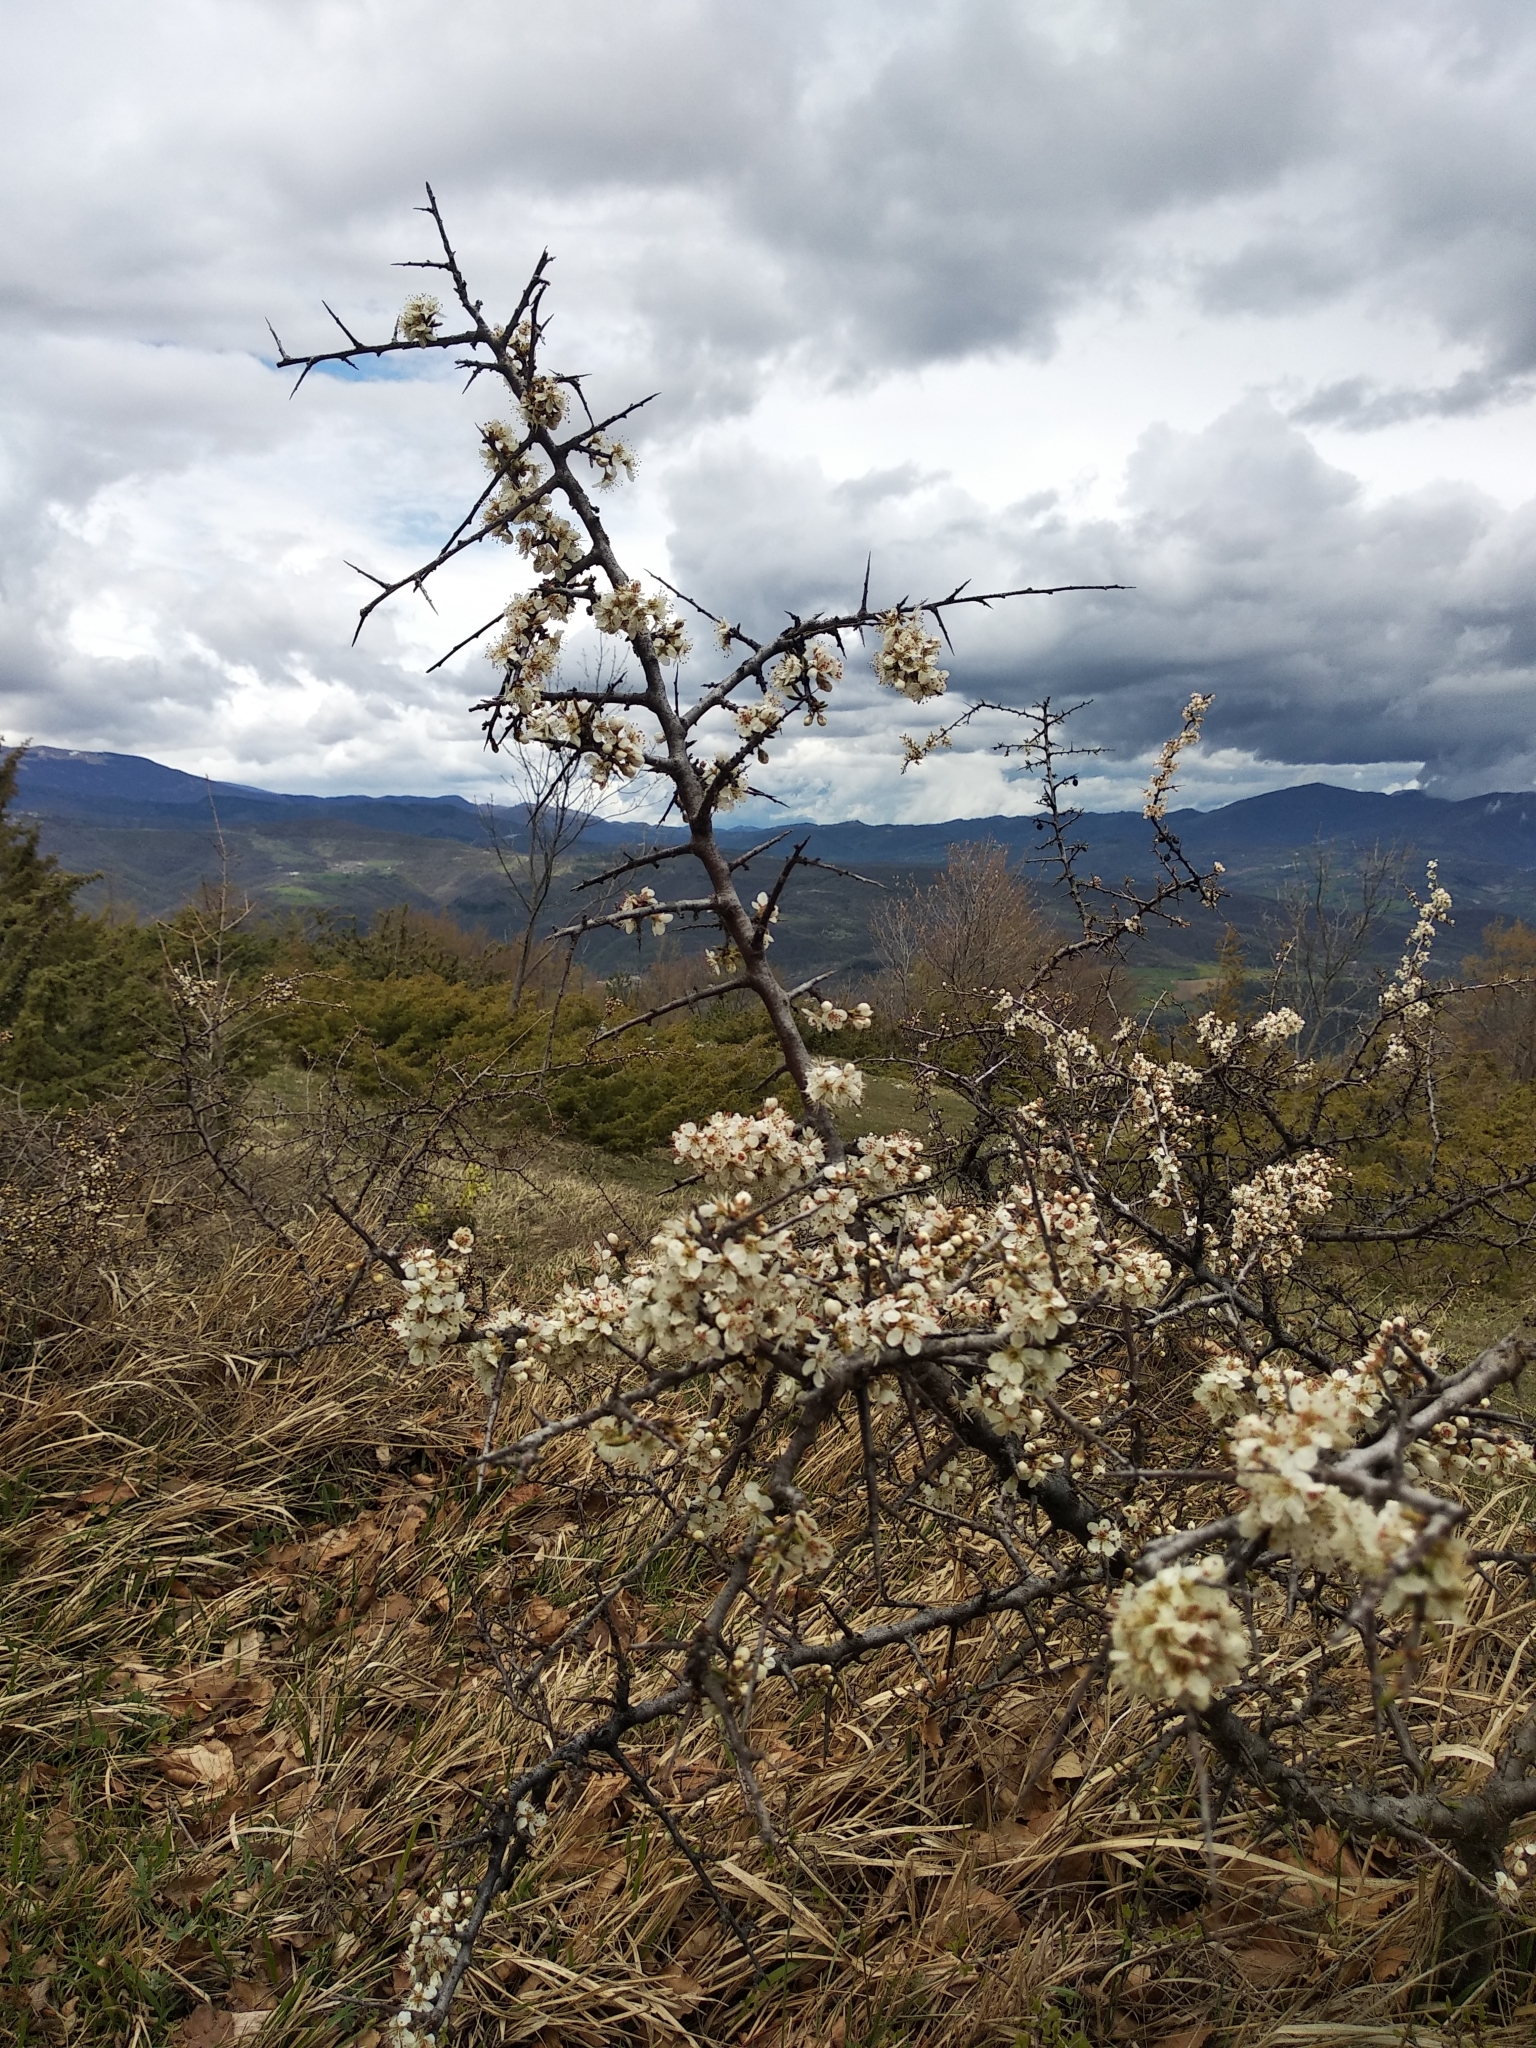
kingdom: Plantae
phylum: Tracheophyta
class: Magnoliopsida
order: Rosales
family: Rosaceae
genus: Prunus
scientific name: Prunus spinosa
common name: Blackthorn
